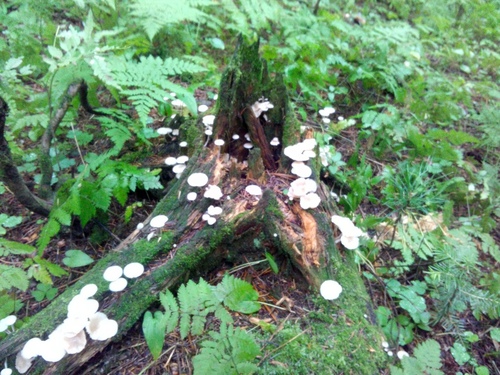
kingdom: Fungi
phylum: Basidiomycota
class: Agaricomycetes
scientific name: Agaricomycetes
